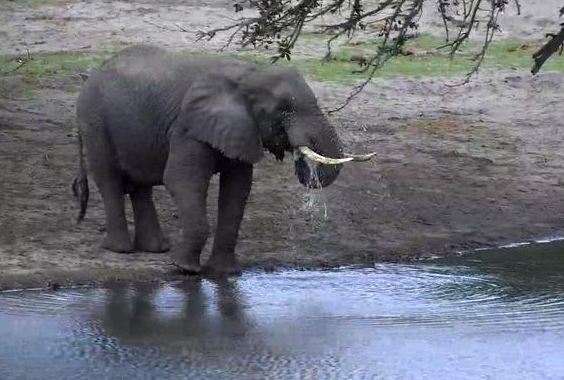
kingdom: Animalia
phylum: Chordata
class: Mammalia
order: Proboscidea
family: Elephantidae
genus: Loxodonta
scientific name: Loxodonta africana
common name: African elephant
